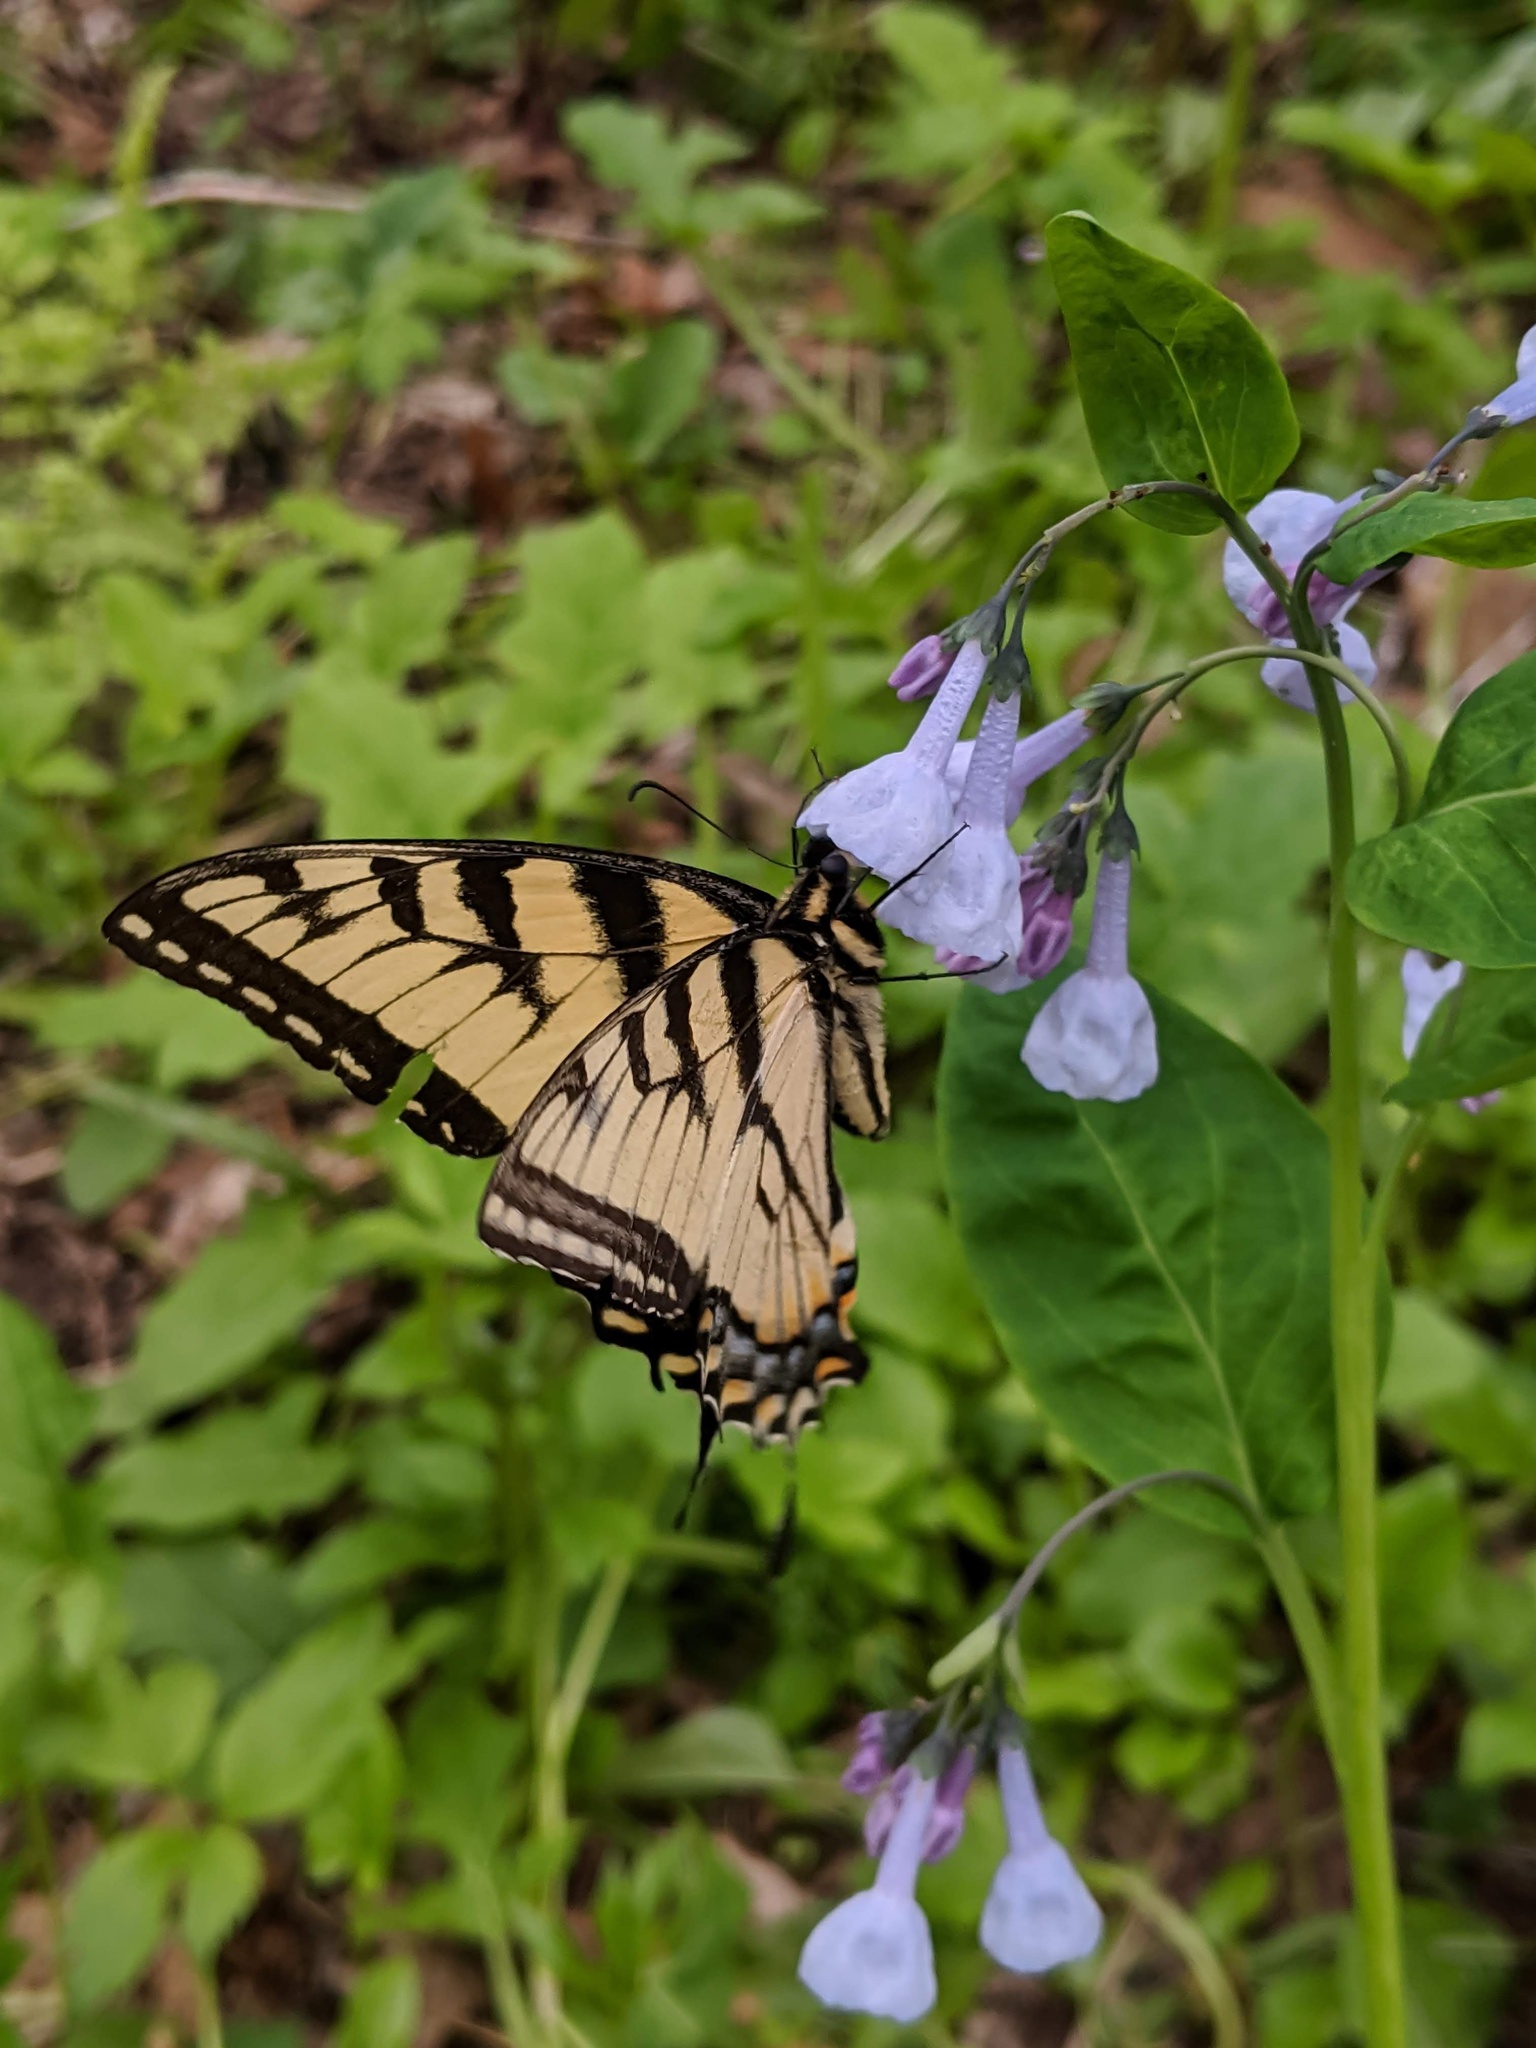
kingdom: Animalia
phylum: Arthropoda
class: Insecta
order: Lepidoptera
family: Papilionidae
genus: Papilio
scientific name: Papilio glaucus
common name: Tiger swallowtail
